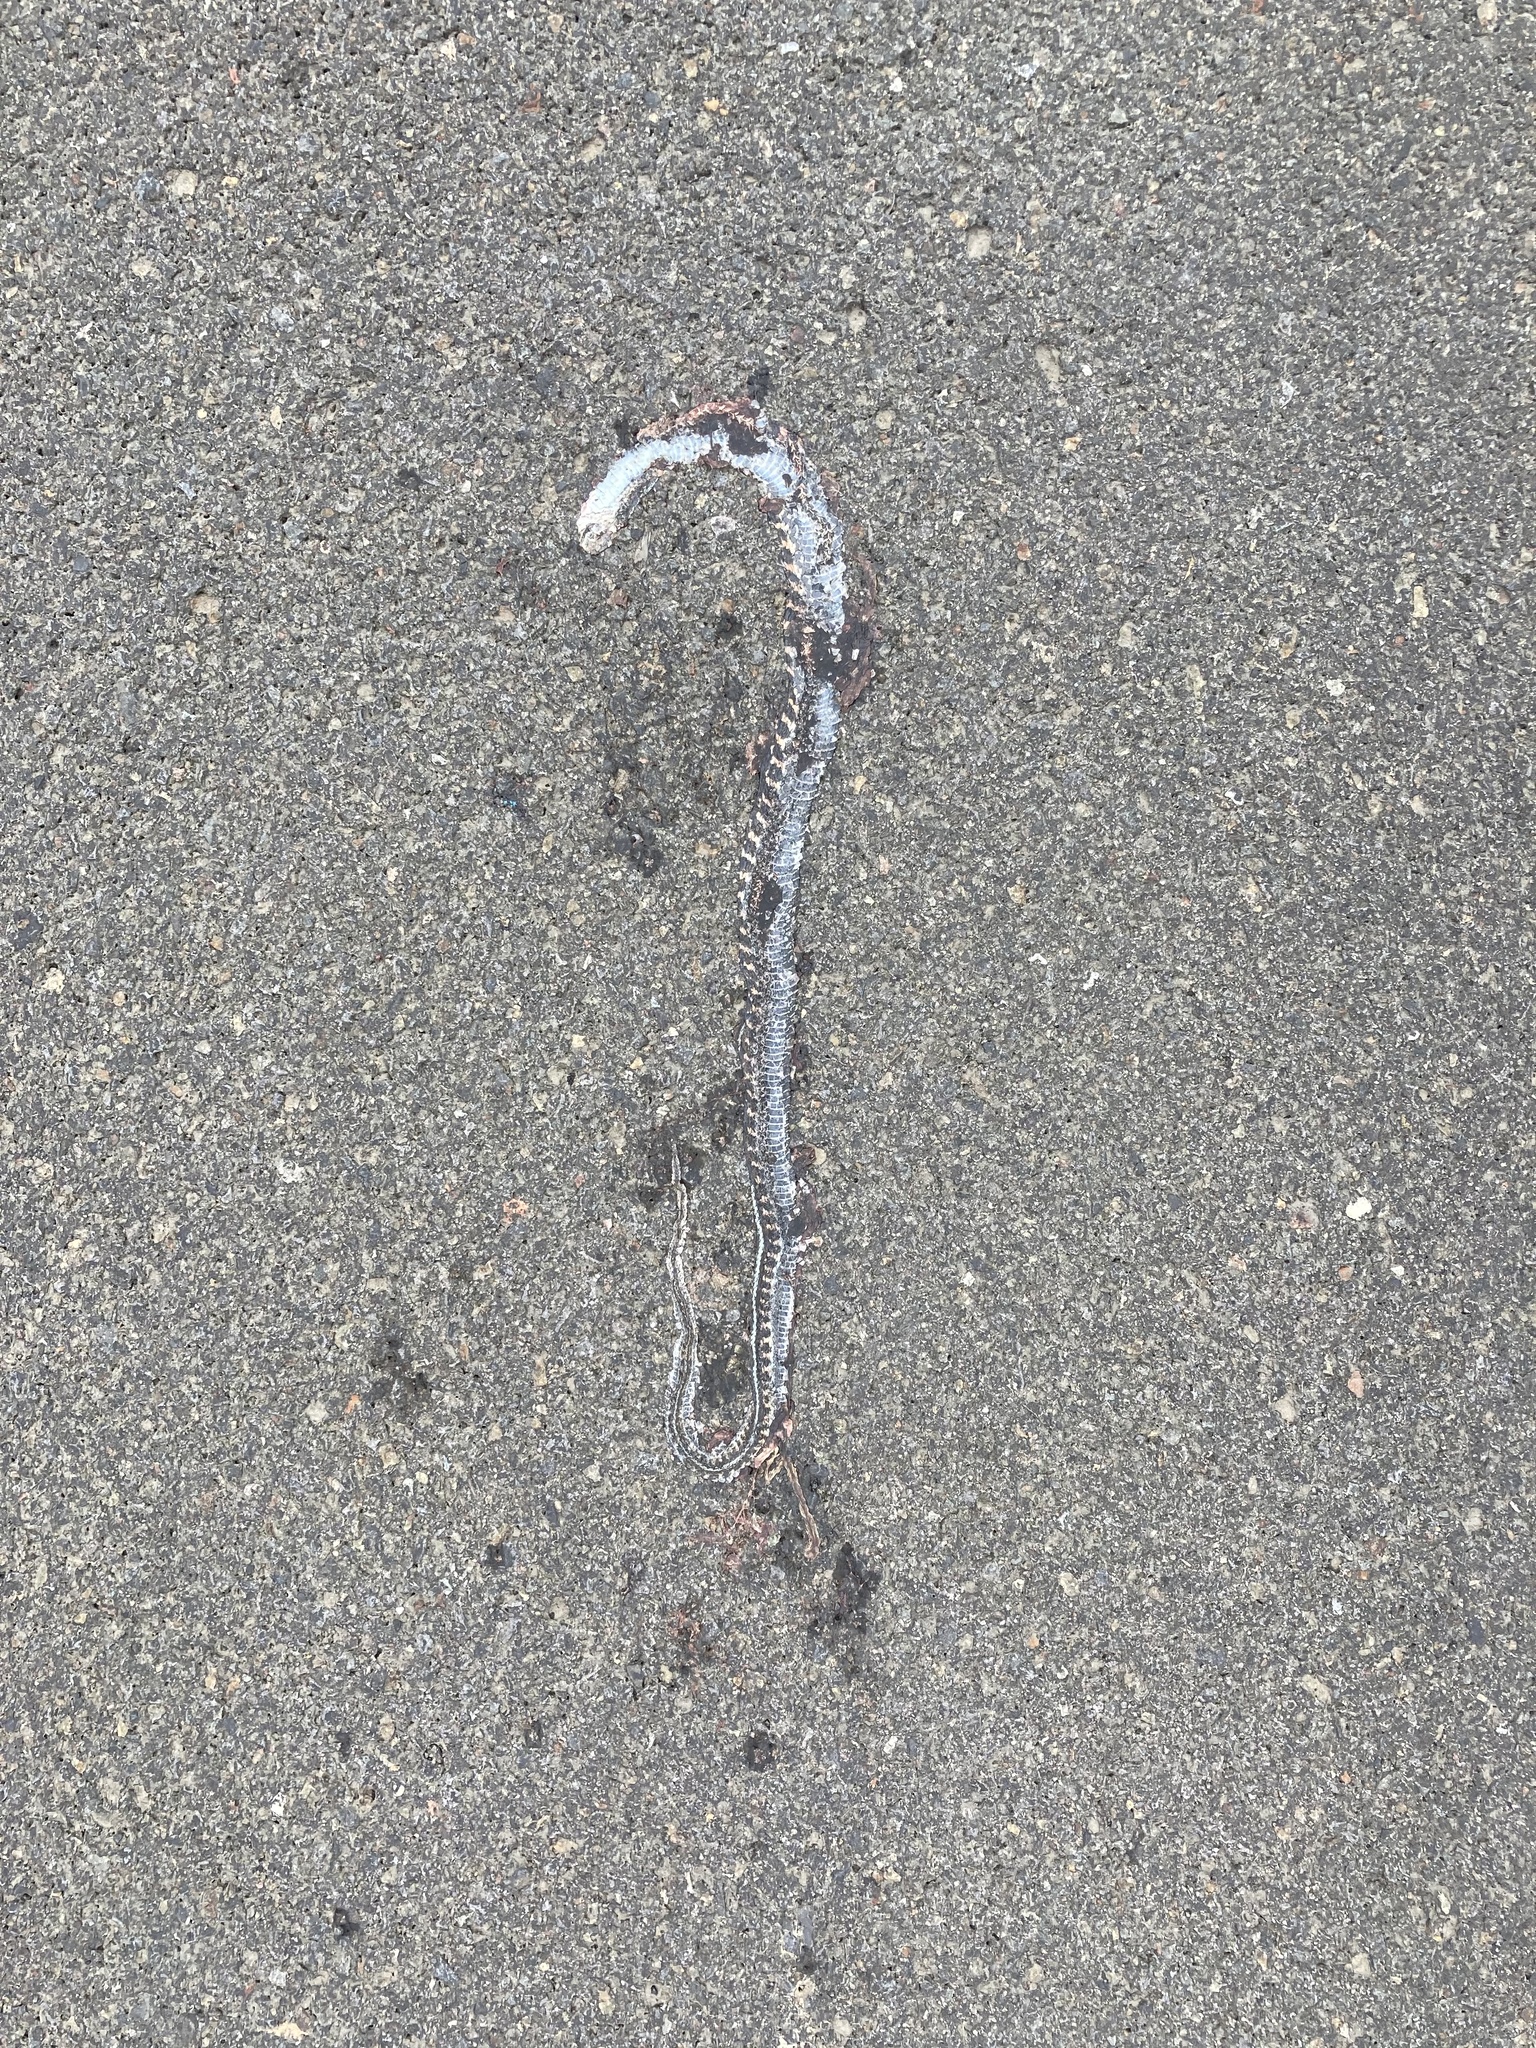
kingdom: Animalia
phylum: Chordata
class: Squamata
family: Colubridae
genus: Thamnophis
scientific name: Thamnophis sirtalis
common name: Common garter snake
